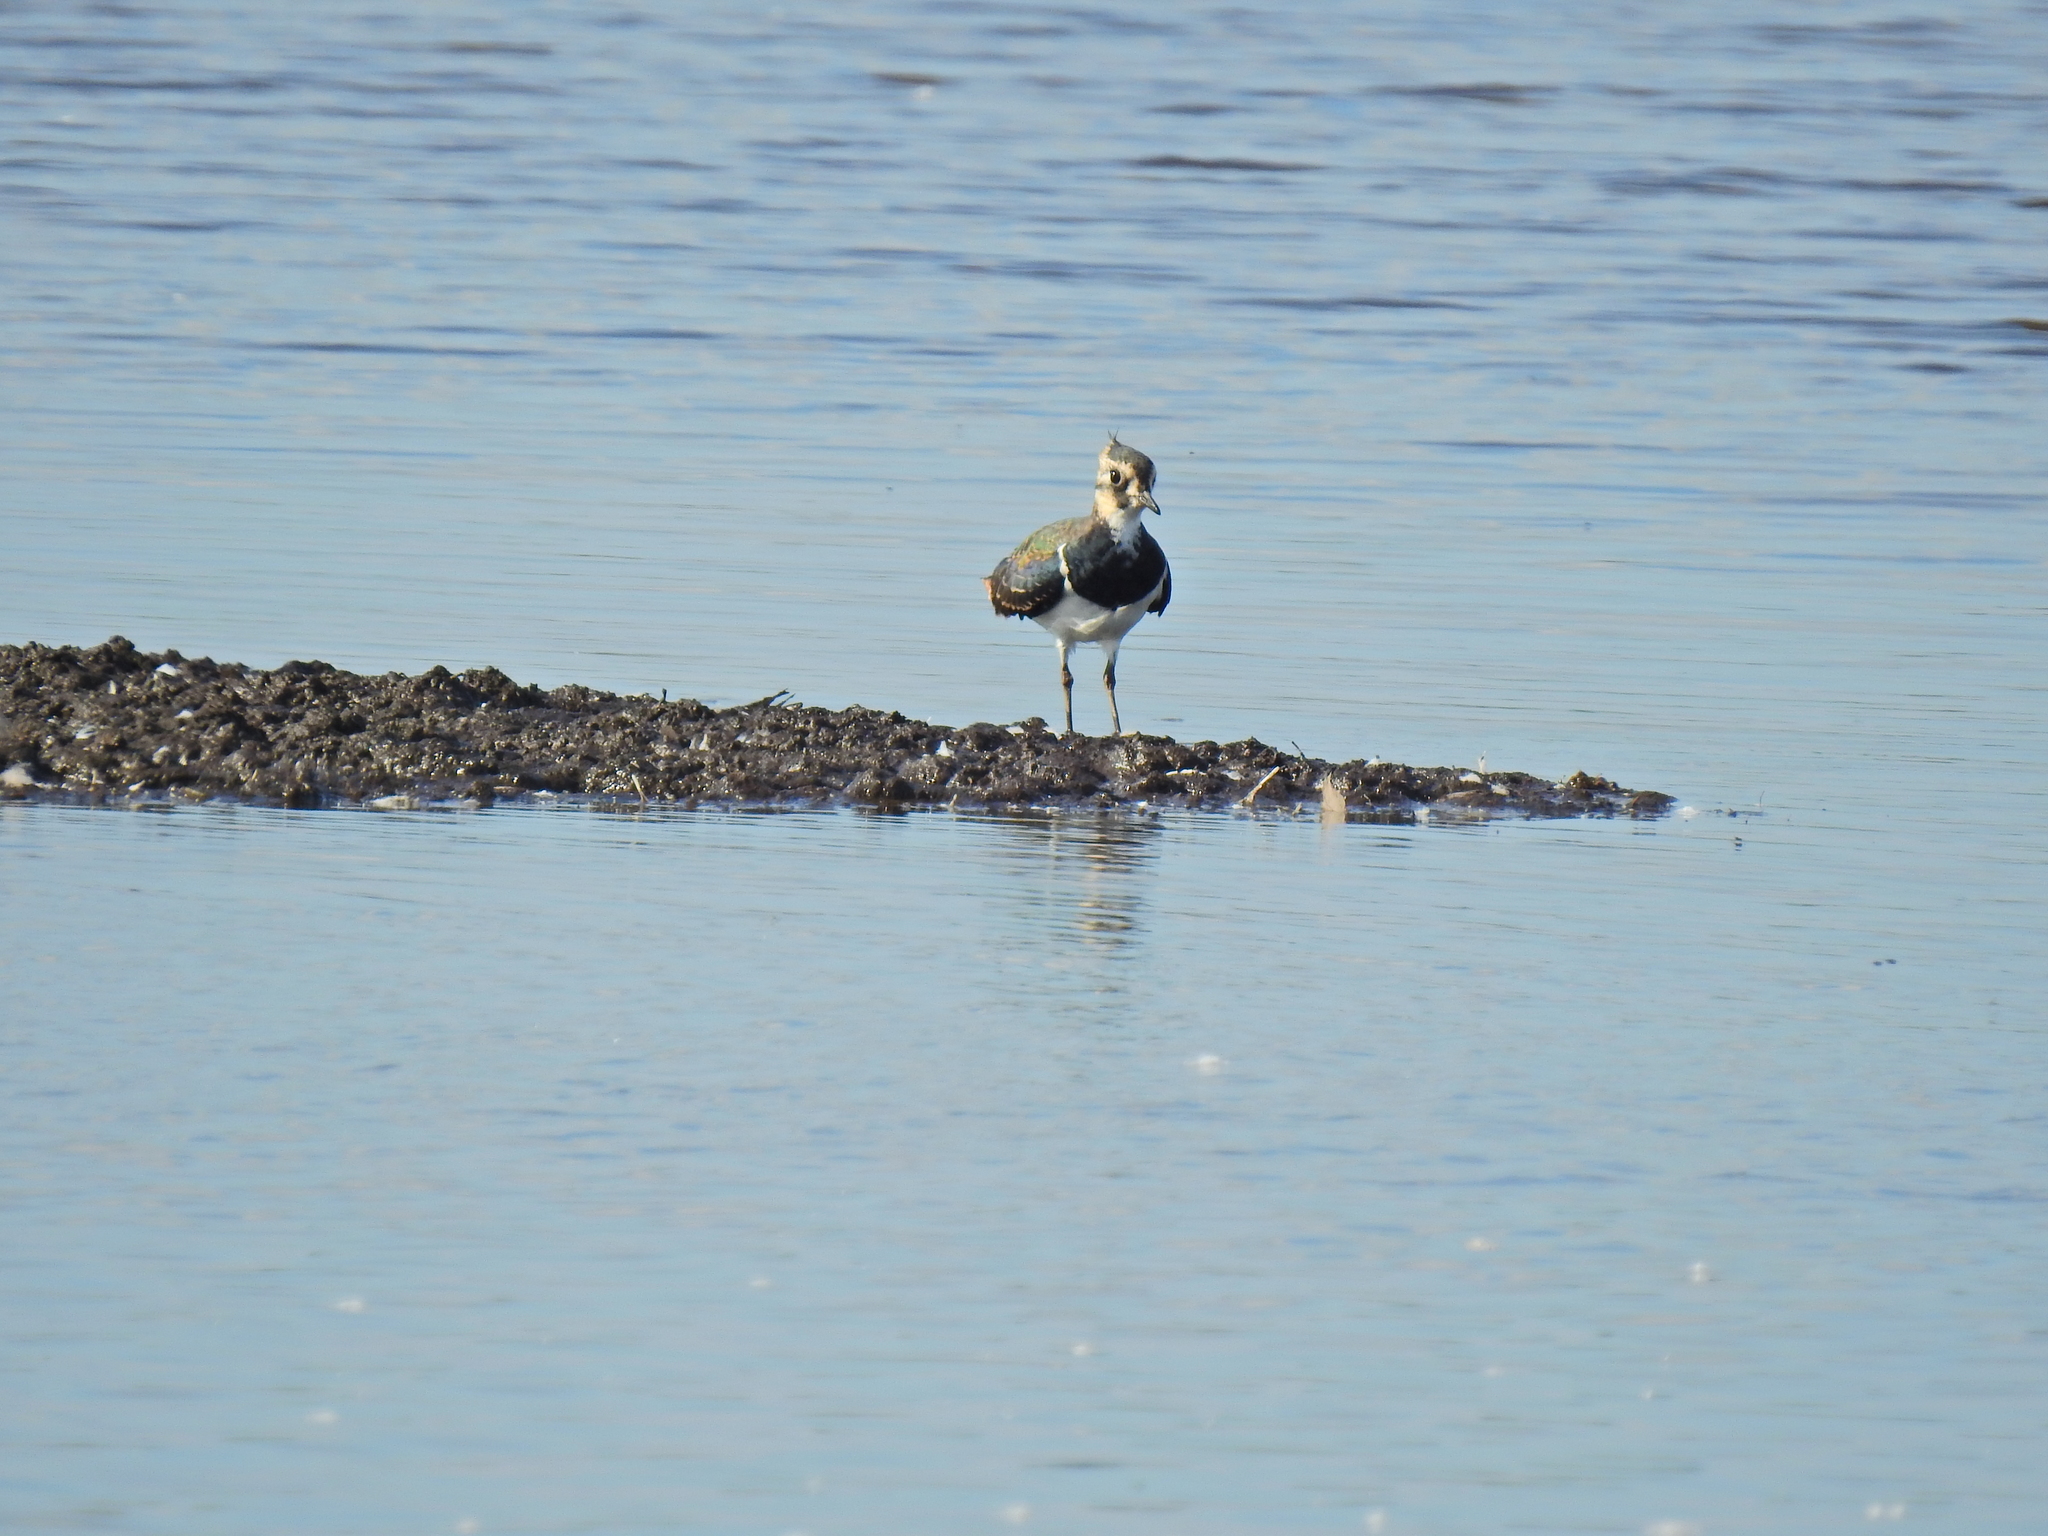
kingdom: Animalia
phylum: Chordata
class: Aves
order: Charadriiformes
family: Charadriidae
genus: Vanellus
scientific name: Vanellus vanellus
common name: Northern lapwing
